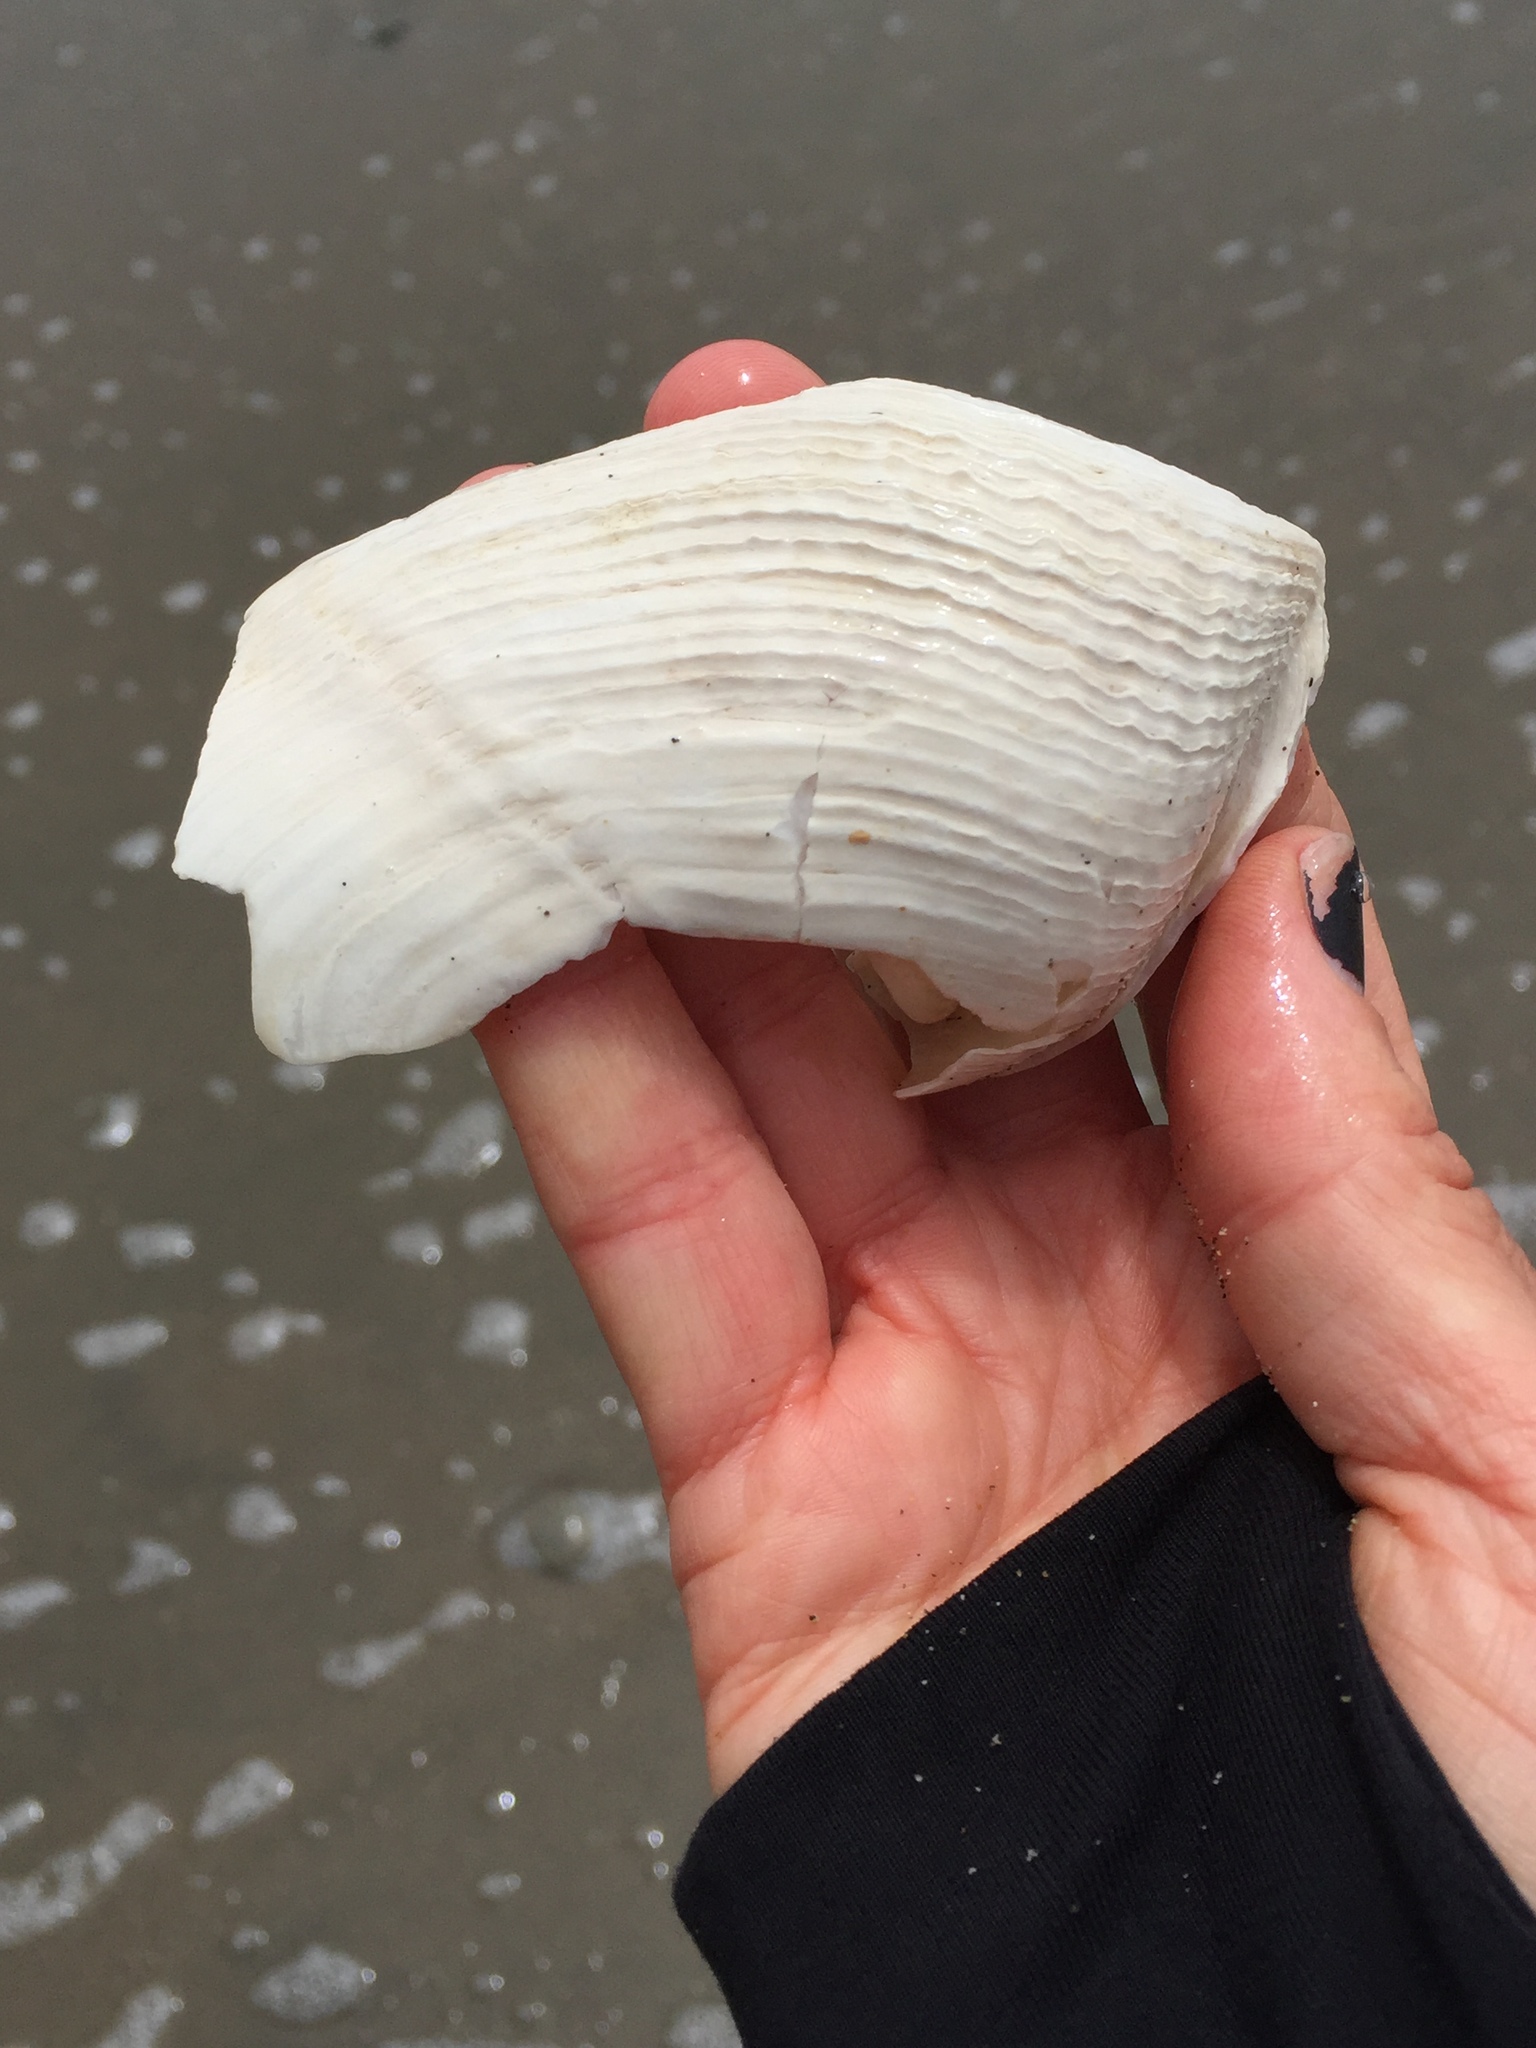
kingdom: Animalia
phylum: Mollusca
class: Bivalvia
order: Myida
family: Pholadidae
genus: Zirfaea
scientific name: Zirfaea pilsbryi
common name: Rough piddock
